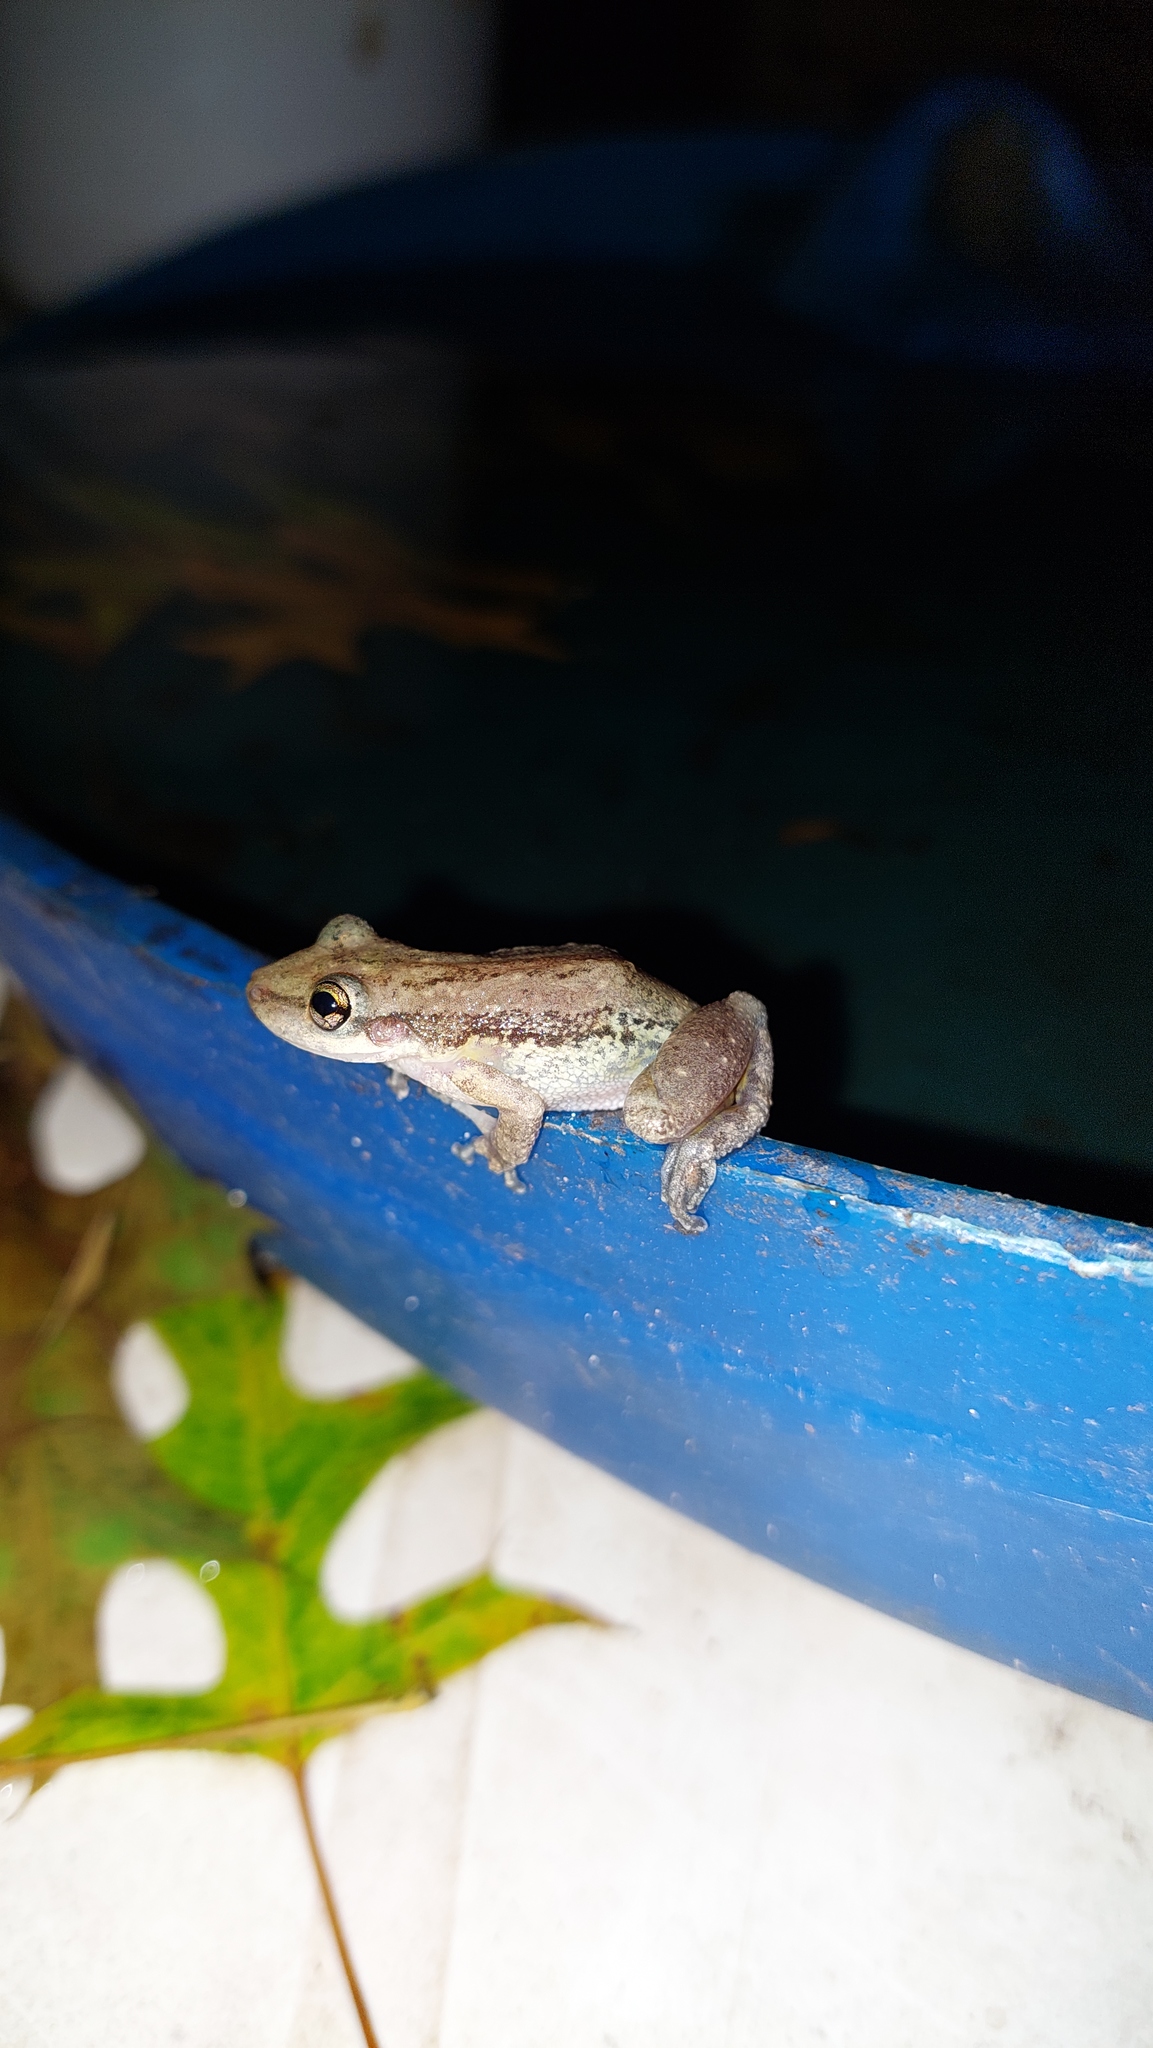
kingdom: Animalia
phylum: Chordata
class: Amphibia
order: Anura
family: Hylidae
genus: Scinax
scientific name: Scinax nasicus
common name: Lesser snouted treefrog
